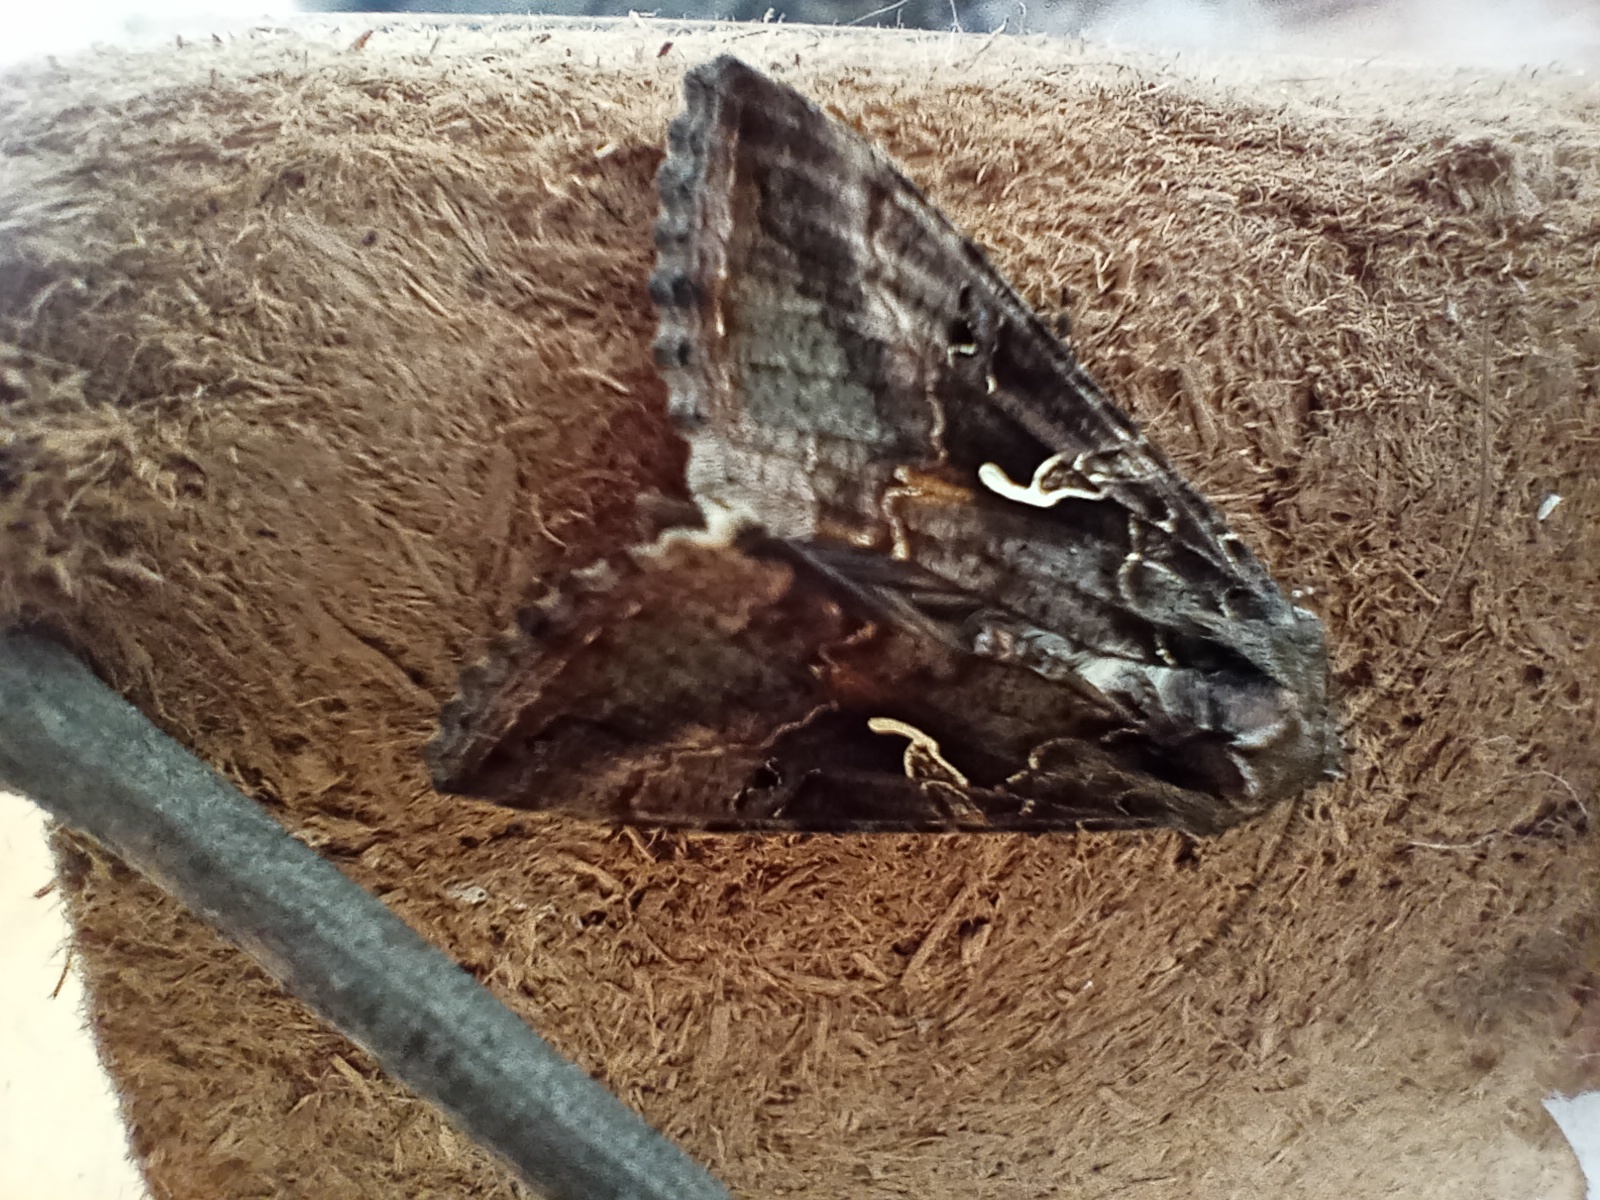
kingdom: Animalia
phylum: Arthropoda
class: Insecta
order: Lepidoptera
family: Noctuidae
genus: Autographa
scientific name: Autographa gamma
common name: Silver y
